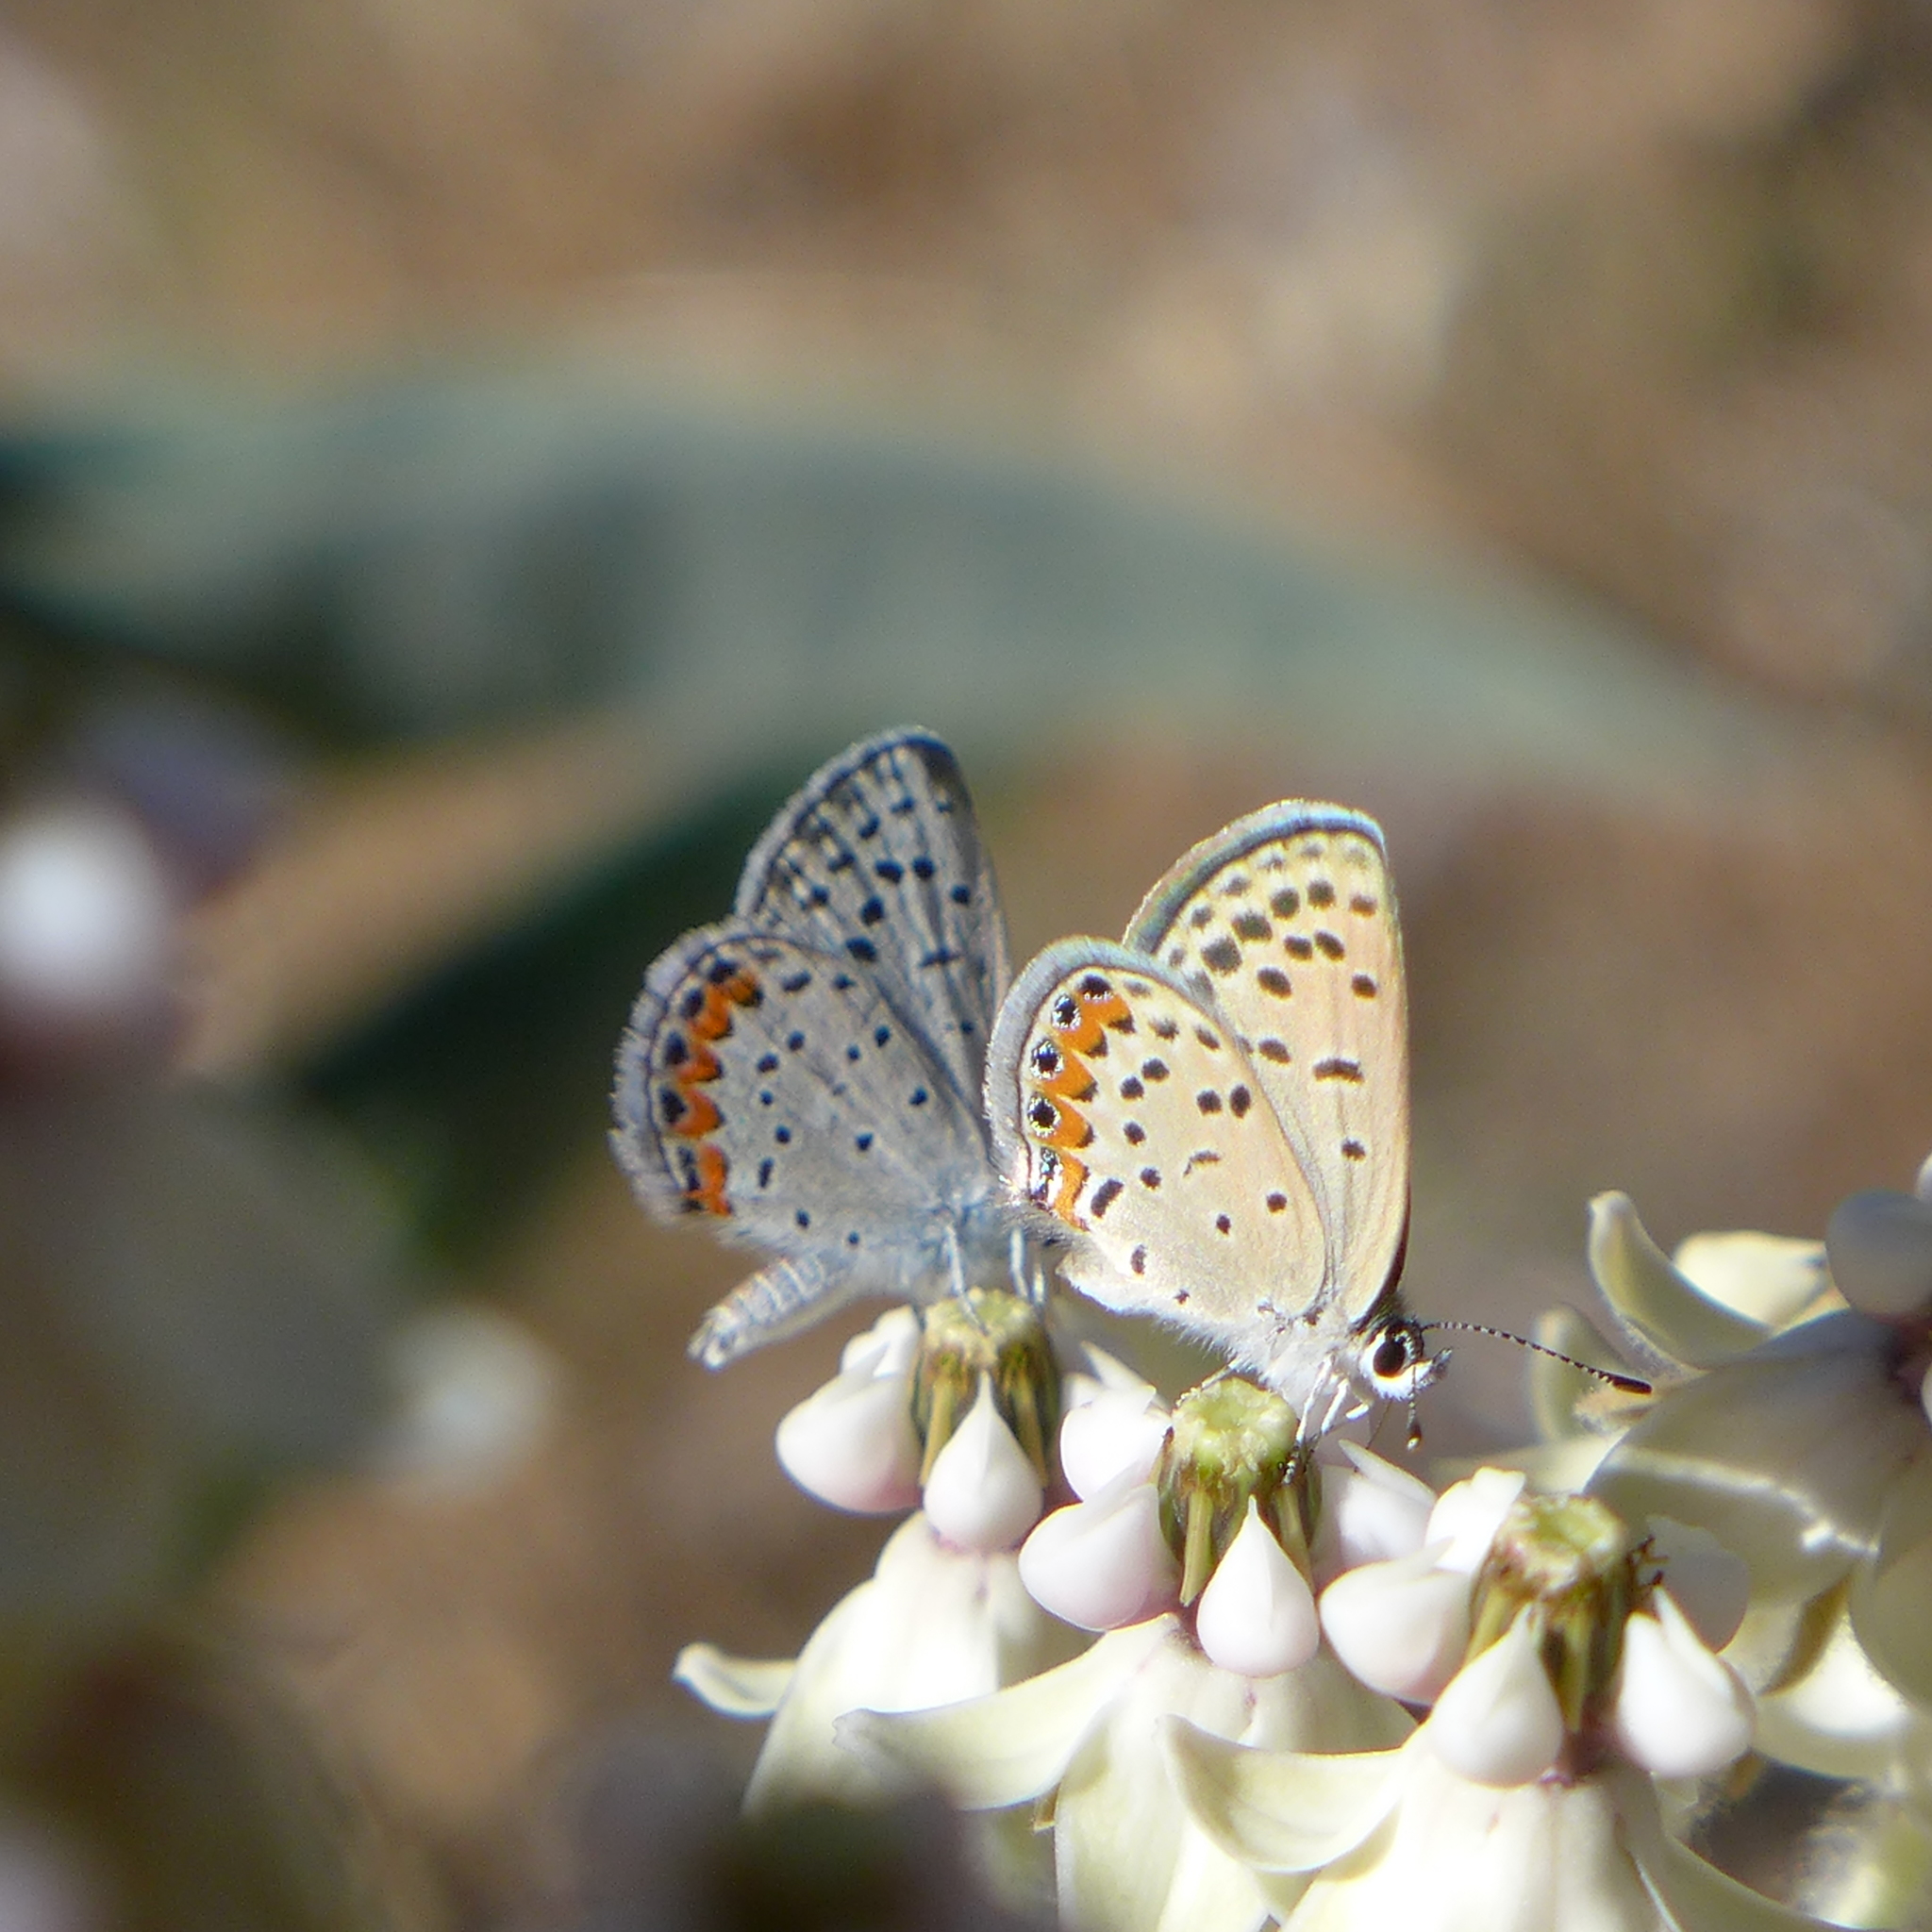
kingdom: Animalia
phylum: Arthropoda
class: Insecta
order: Lepidoptera
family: Lycaenidae
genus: Icaricia
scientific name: Icaricia acmon
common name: Acmon blue
